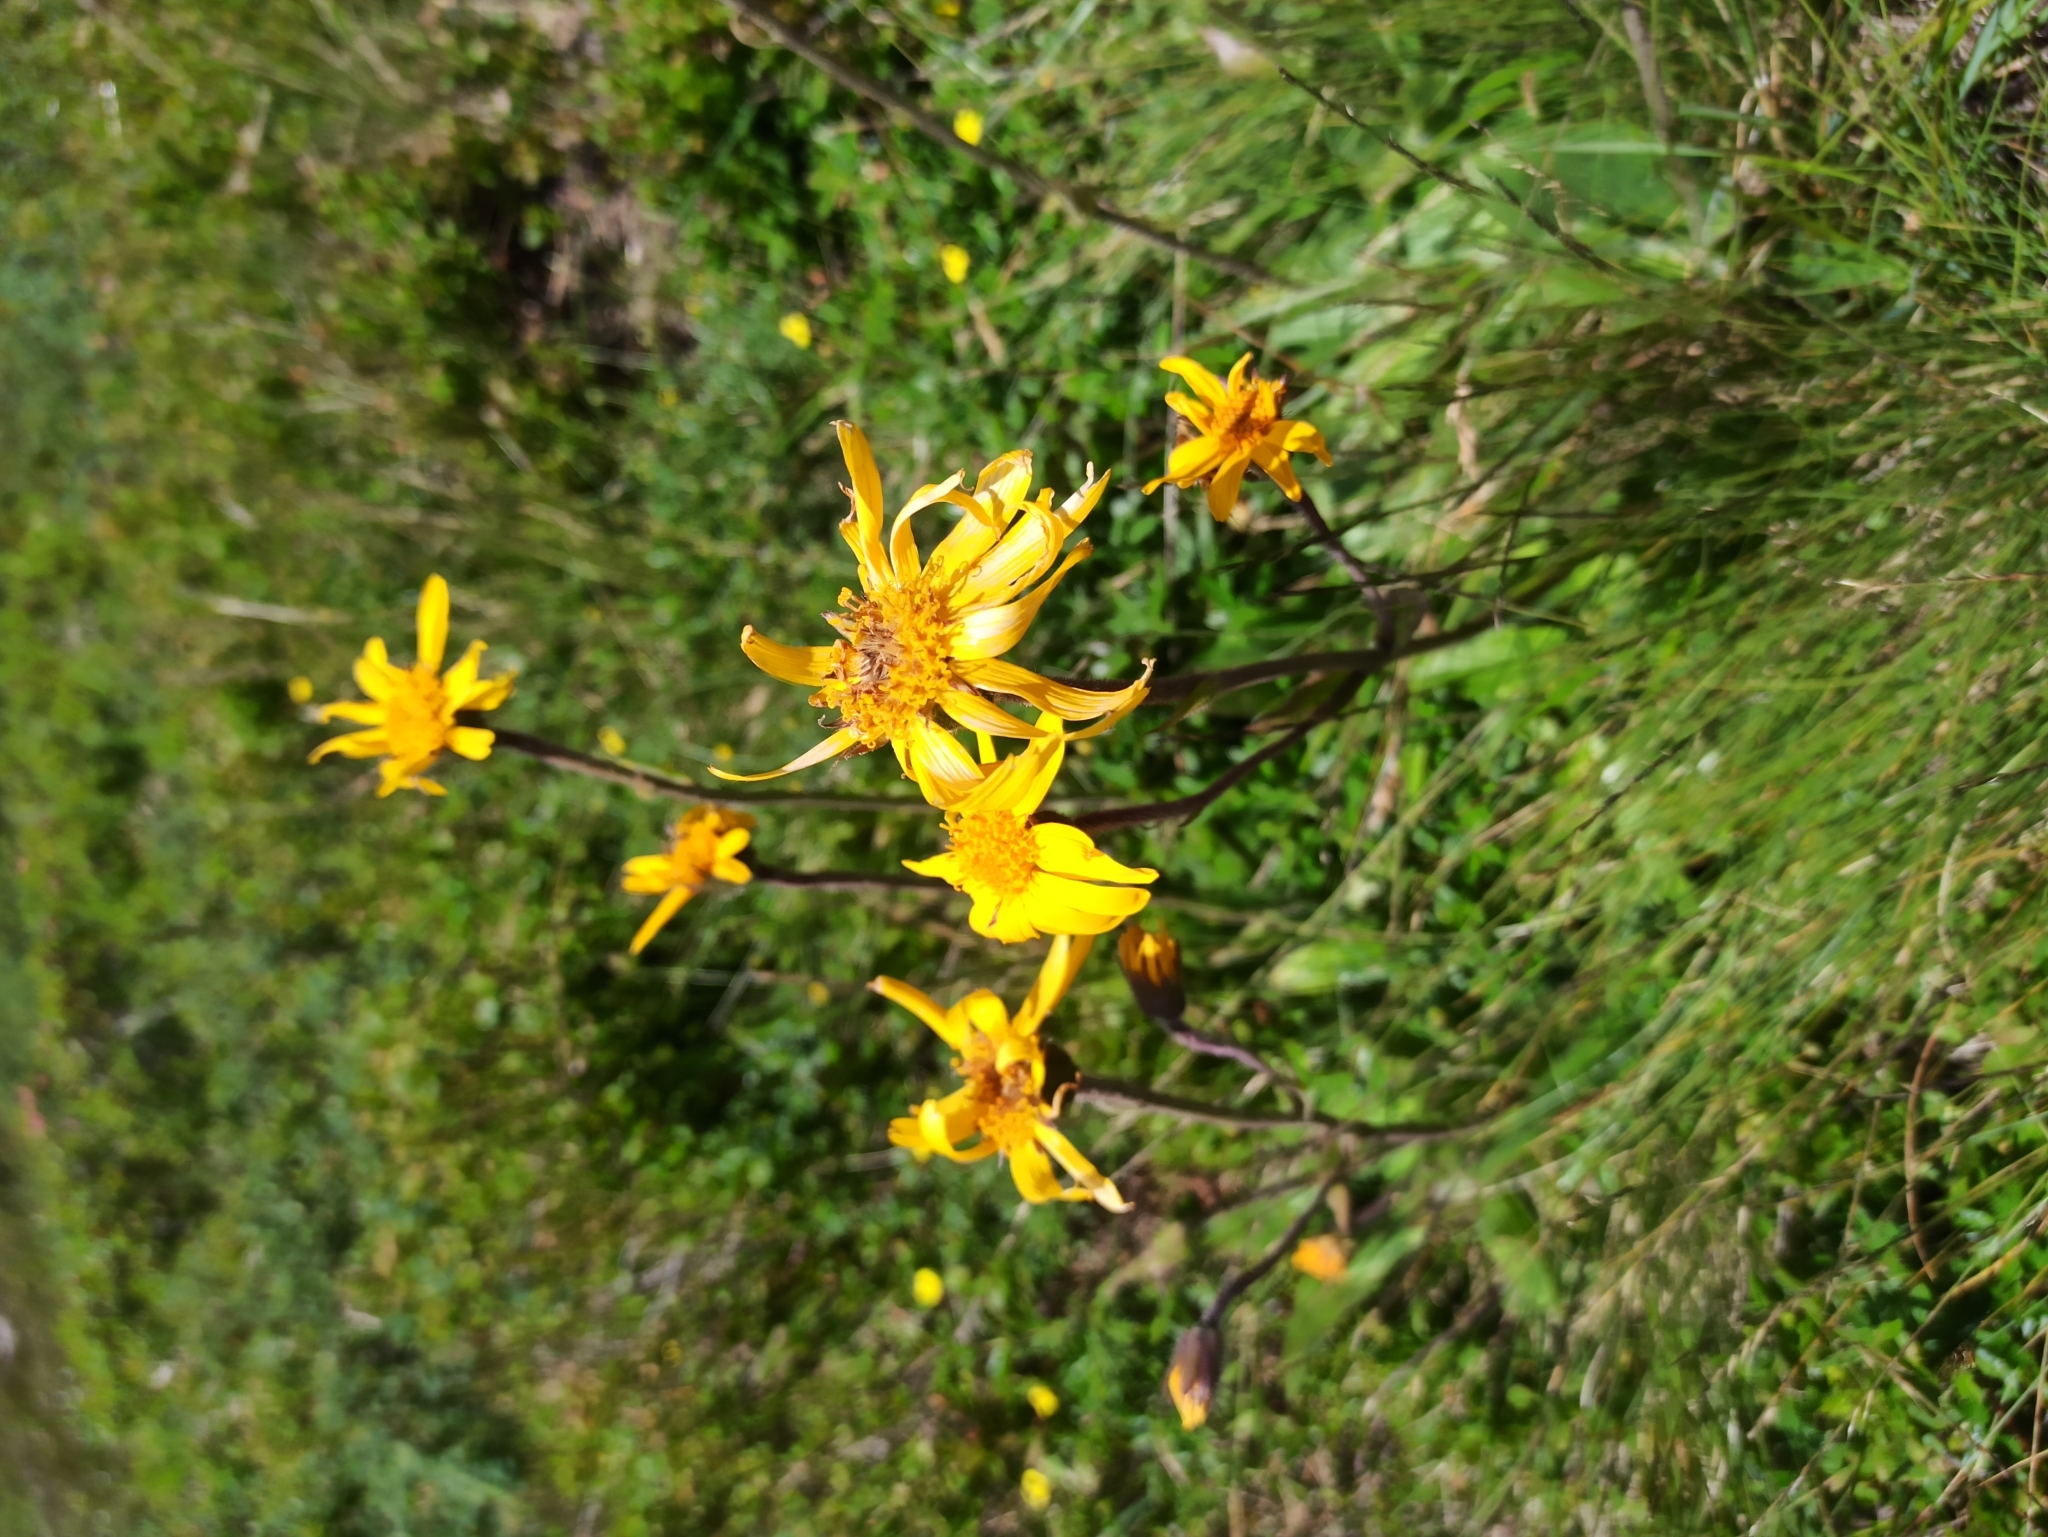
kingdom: Plantae
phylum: Tracheophyta
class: Magnoliopsida
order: Asterales
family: Asteraceae
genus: Arnica
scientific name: Arnica montana
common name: Leopard's bane
